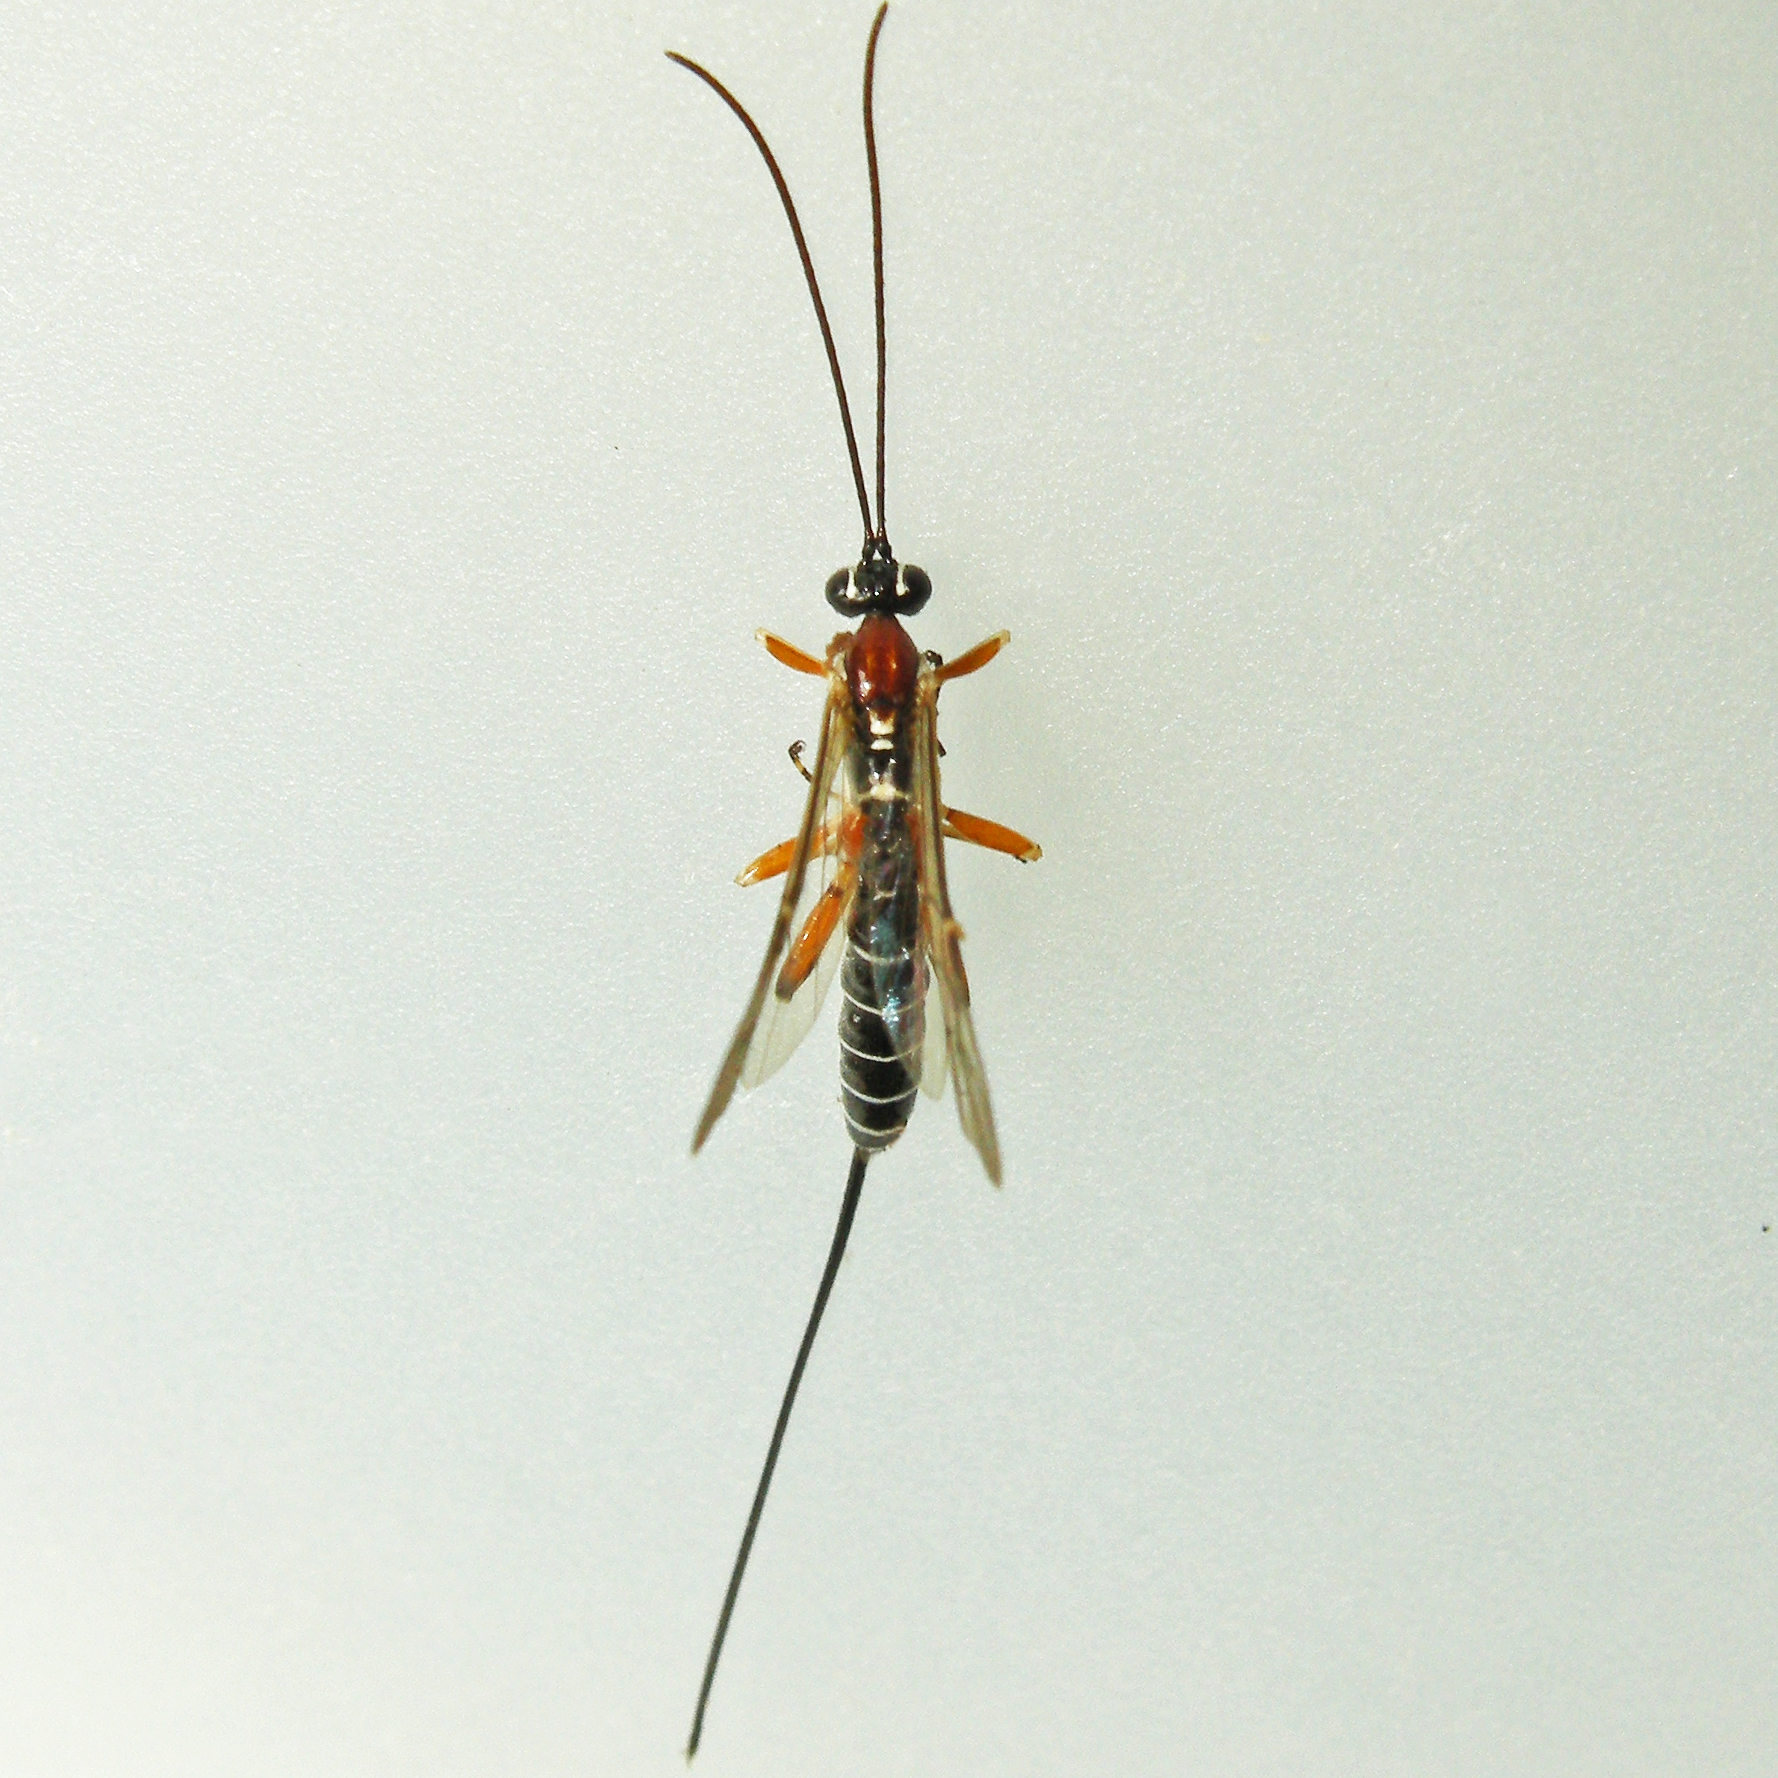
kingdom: Animalia
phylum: Arthropoda
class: Insecta
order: Hymenoptera
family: Ichneumonidae
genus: Perithous
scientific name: Perithous scurra
